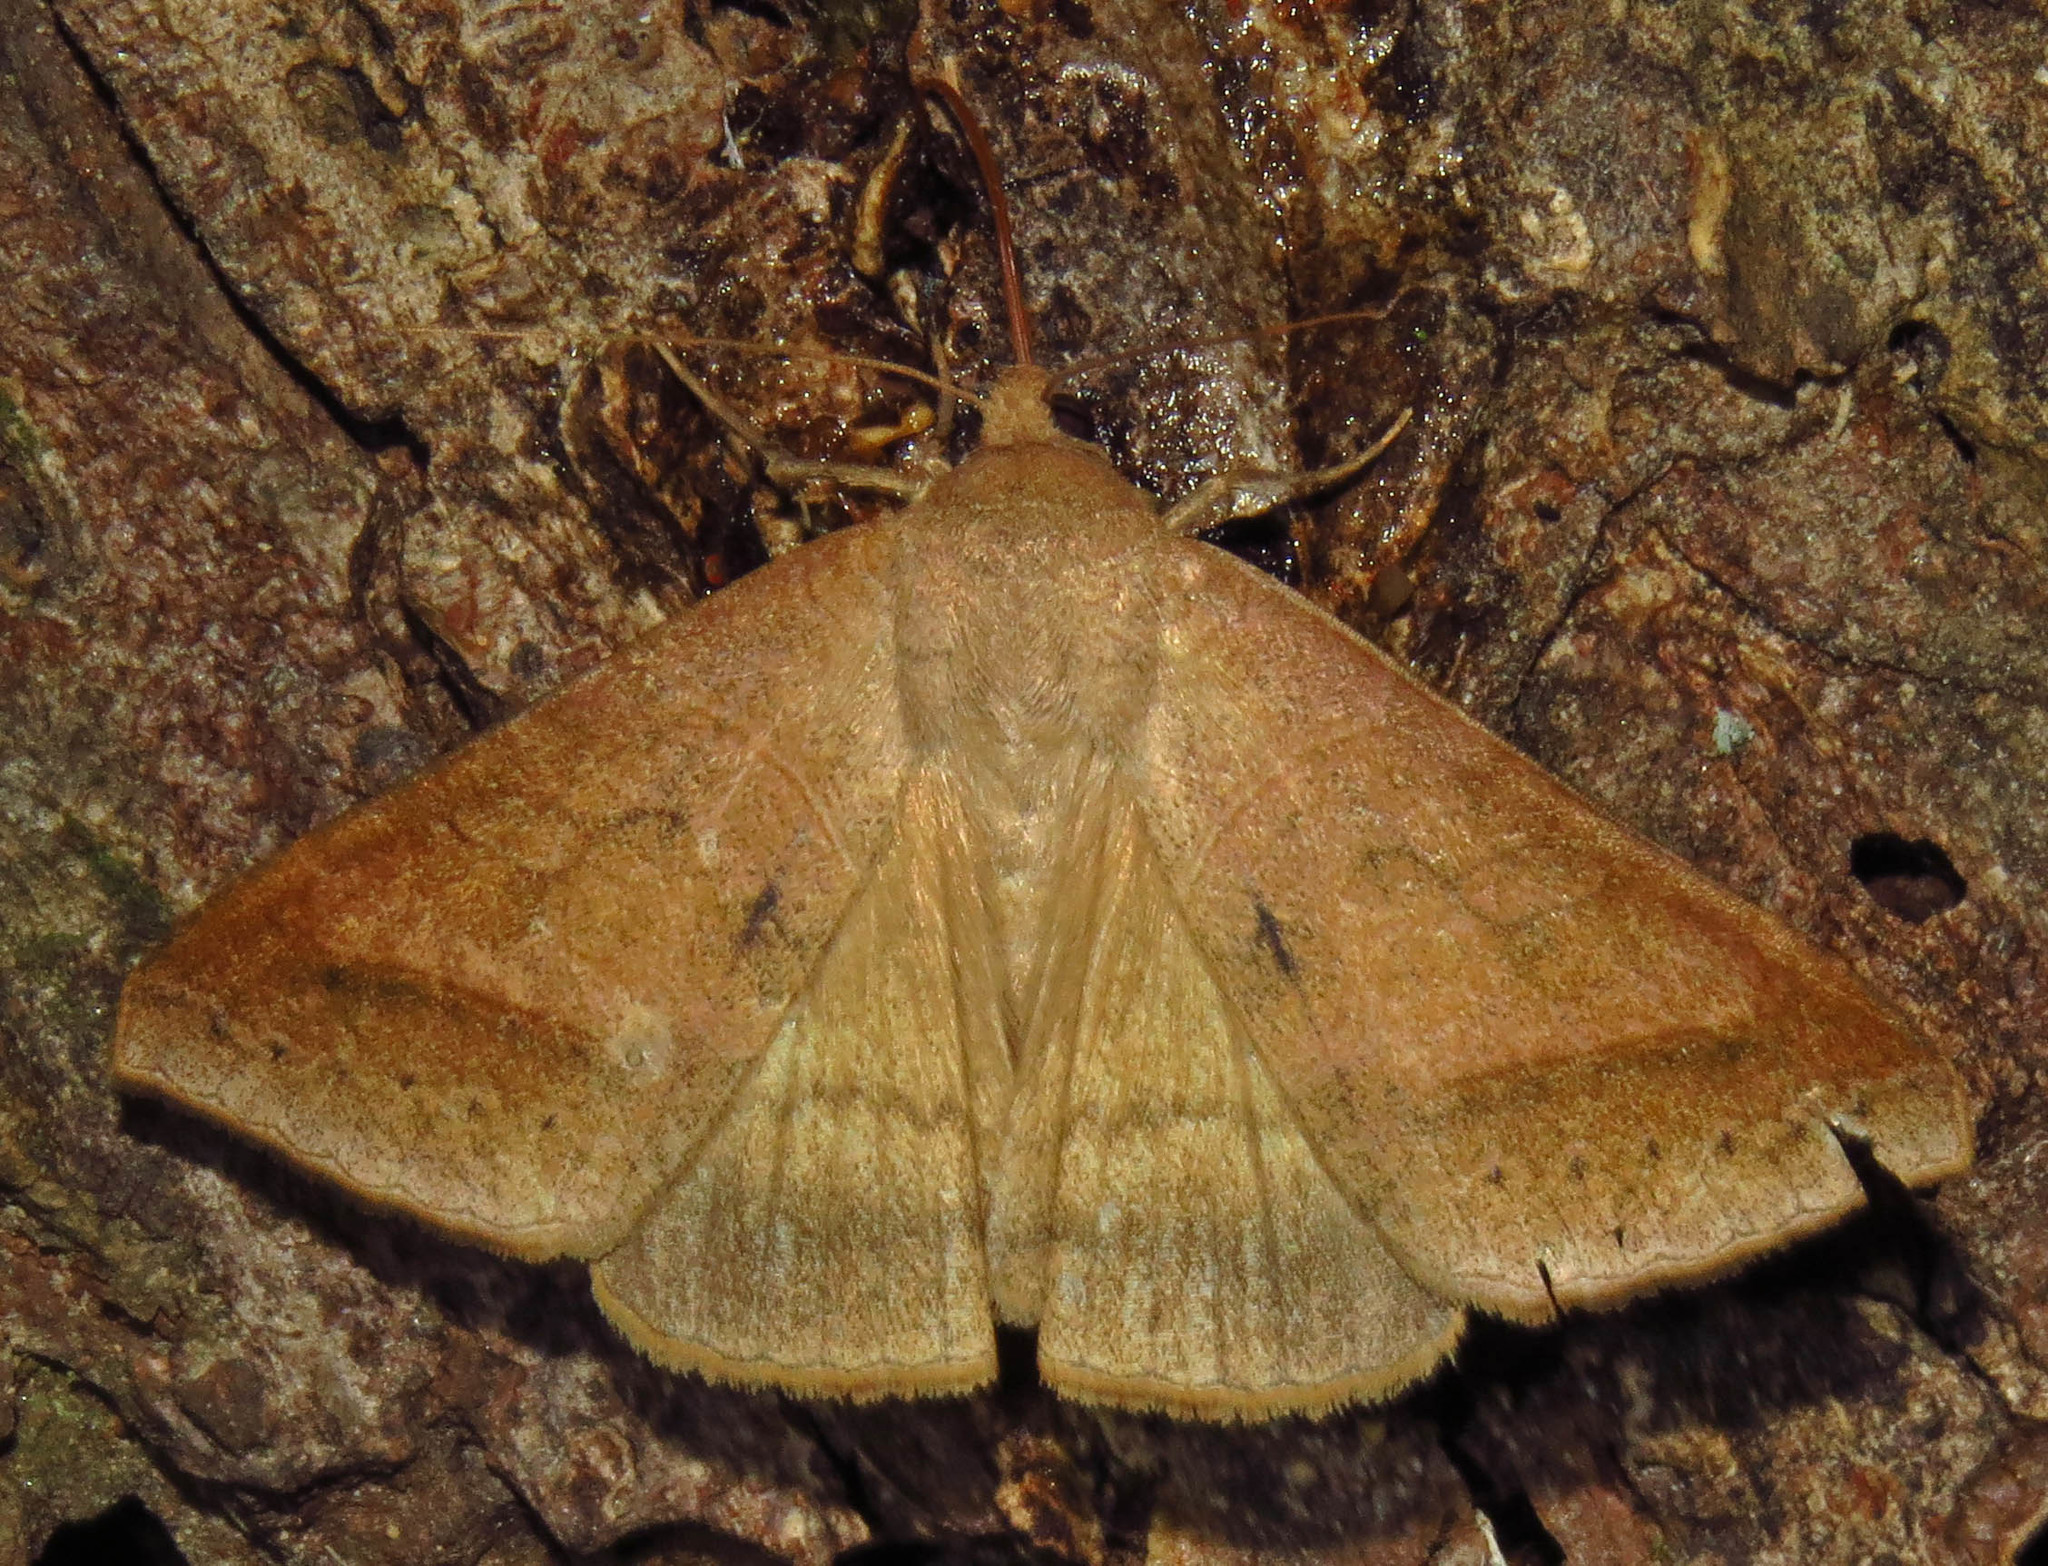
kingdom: Animalia
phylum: Arthropoda
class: Insecta
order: Lepidoptera
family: Erebidae
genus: Mocis
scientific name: Mocis marcida
